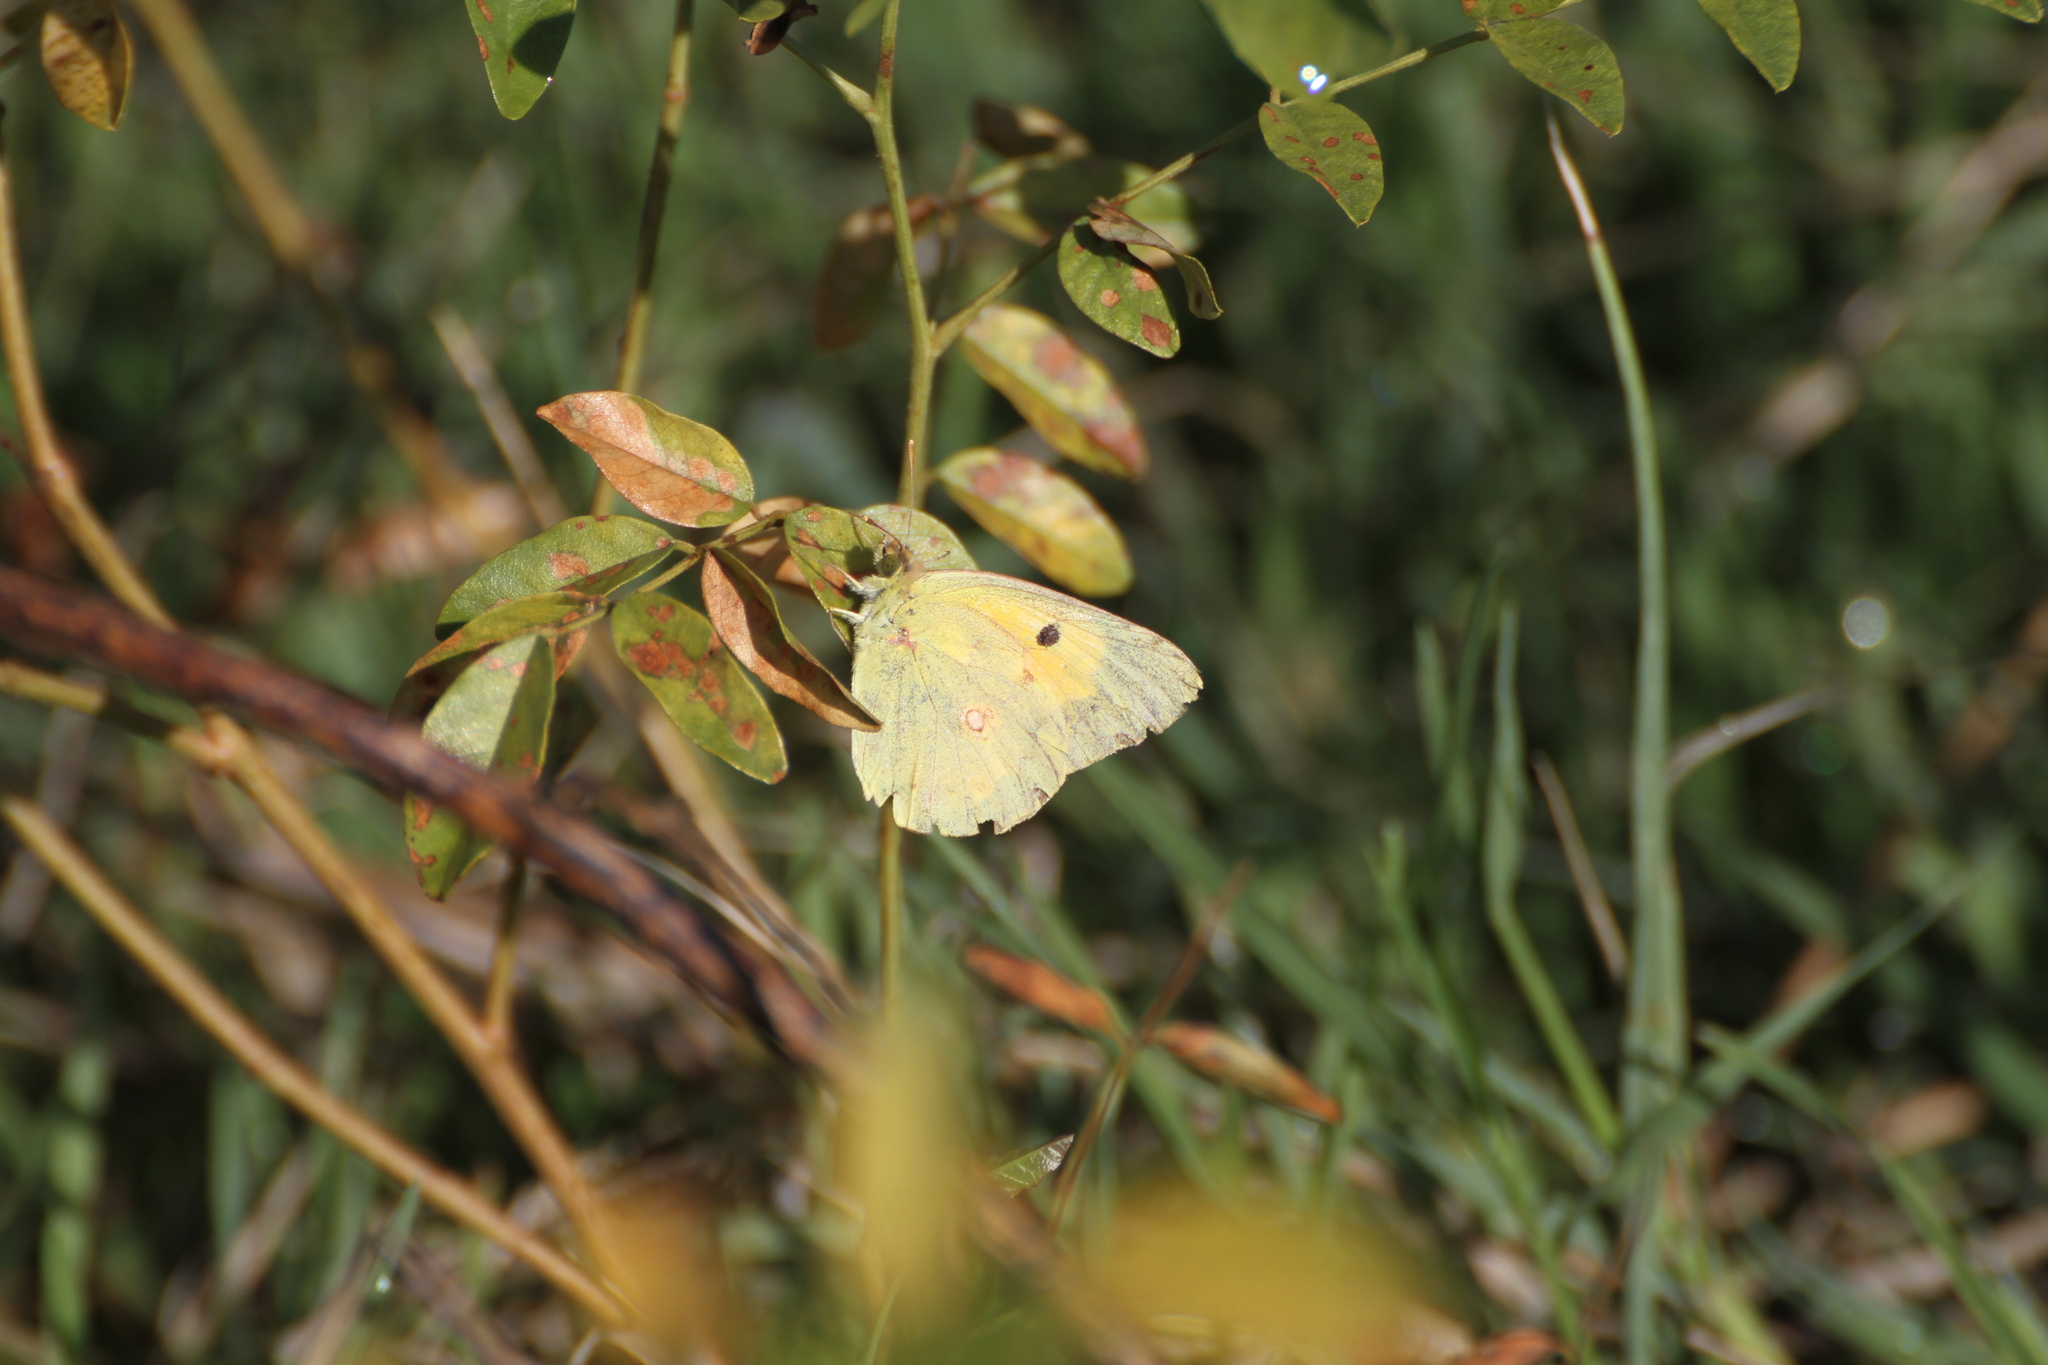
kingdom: Animalia
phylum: Arthropoda
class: Insecta
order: Lepidoptera
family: Pieridae
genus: Colias
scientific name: Colias croceus
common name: Clouded yellow
